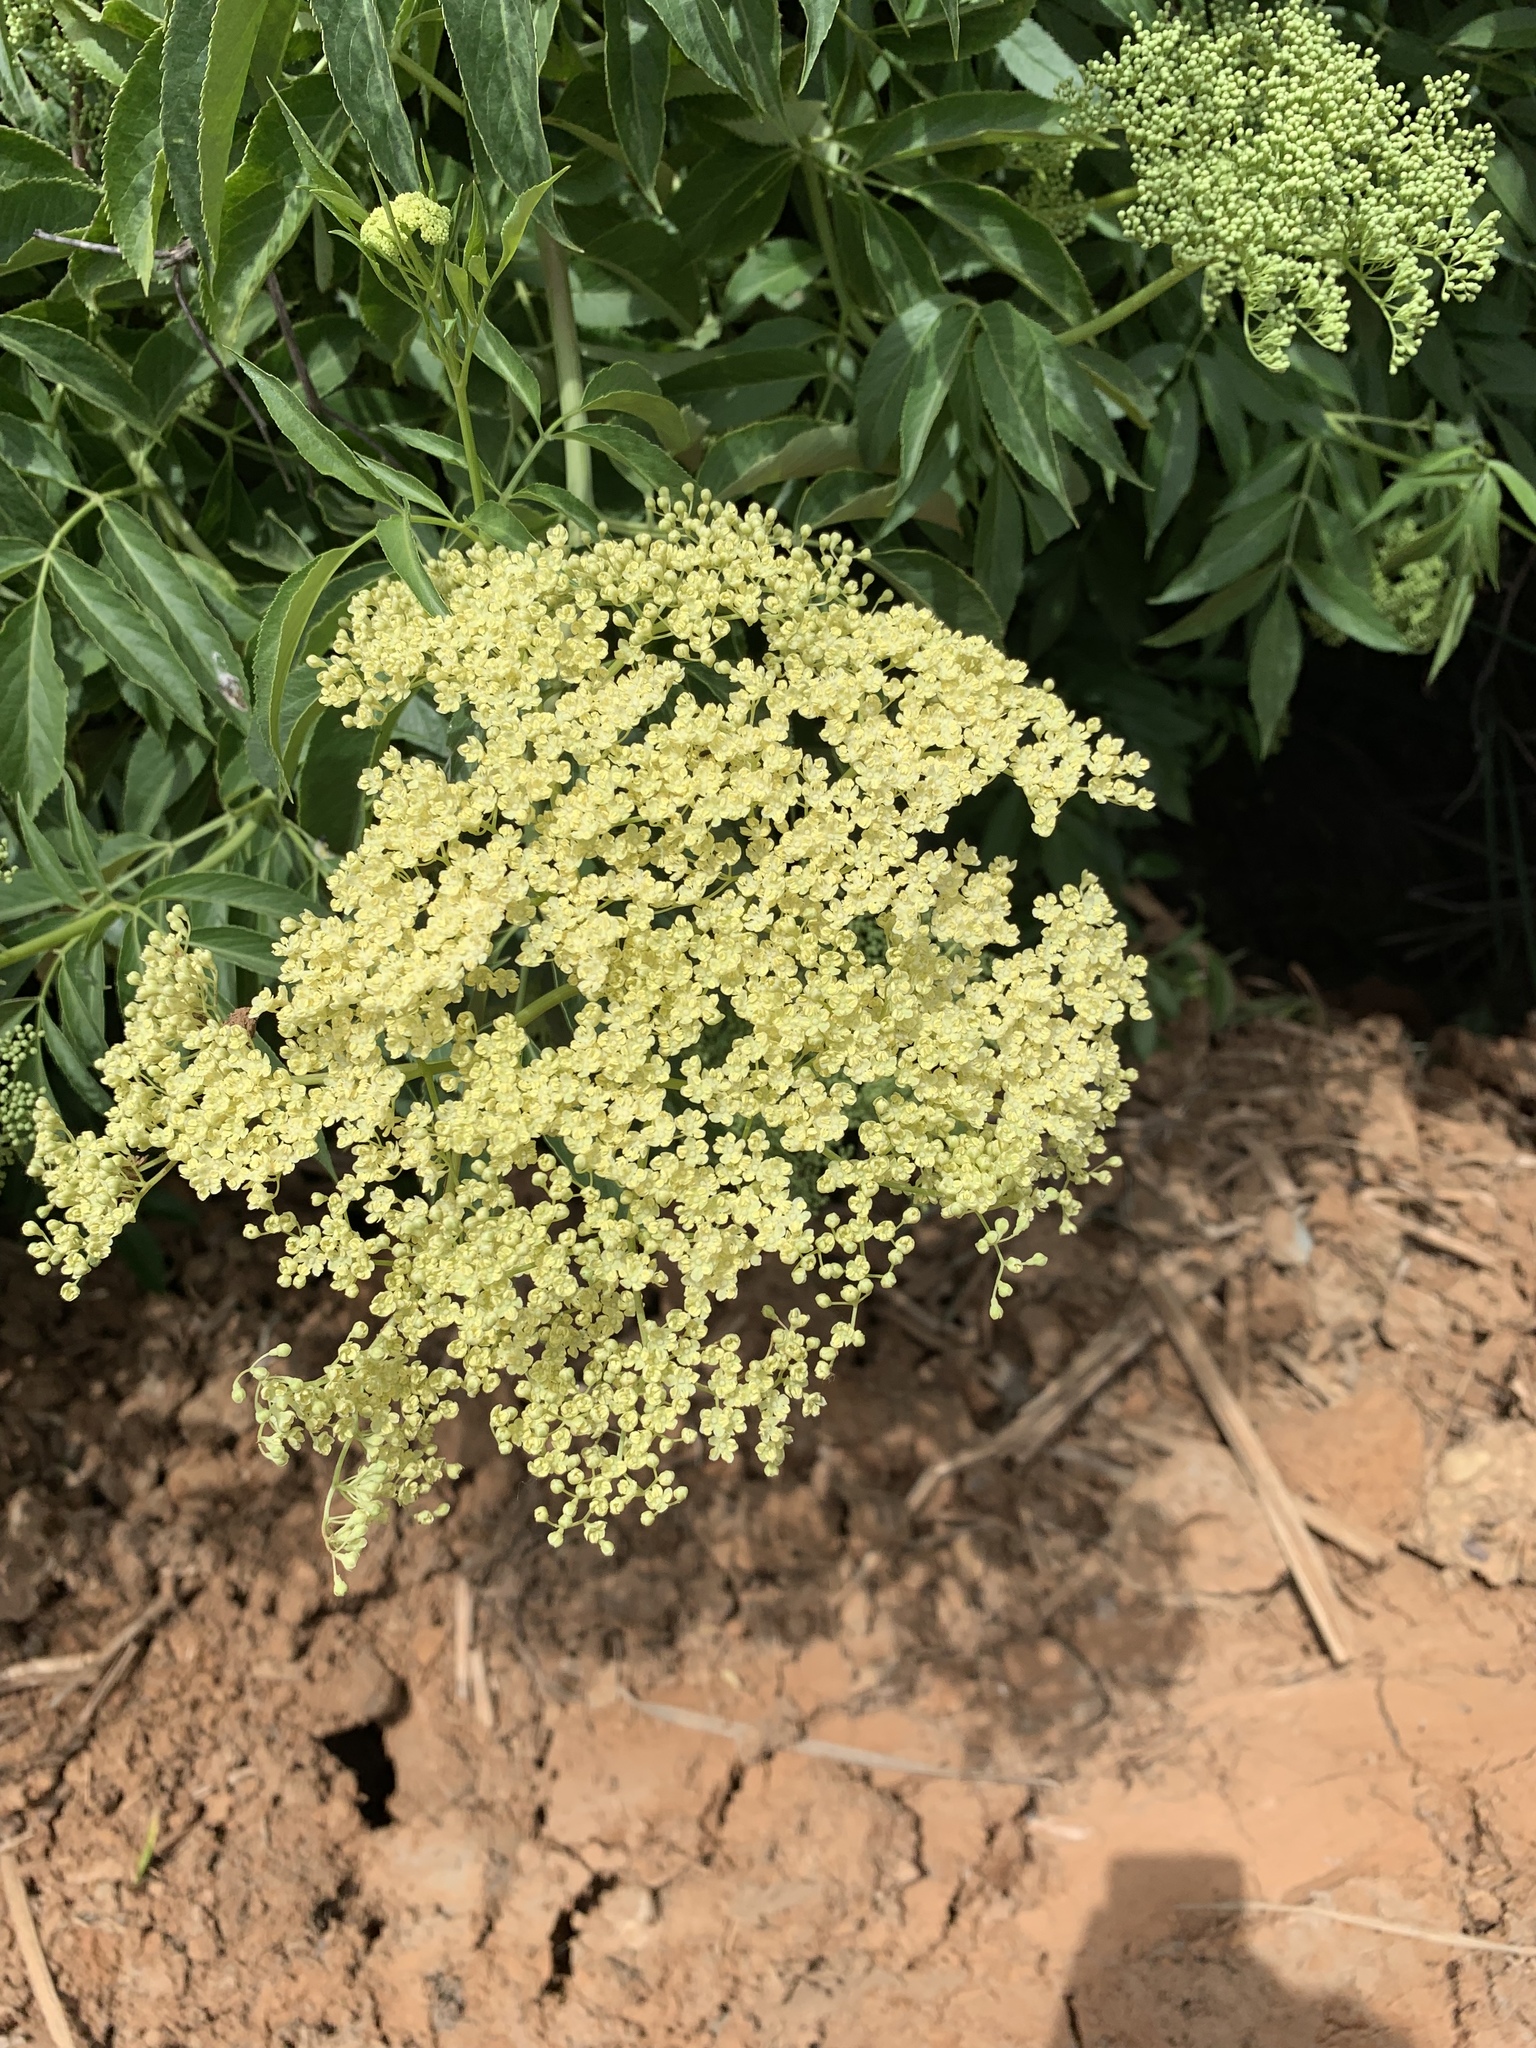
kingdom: Plantae
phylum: Tracheophyta
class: Magnoliopsida
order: Dipsacales
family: Viburnaceae
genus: Sambucus
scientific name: Sambucus cerulea
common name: Blue elder
